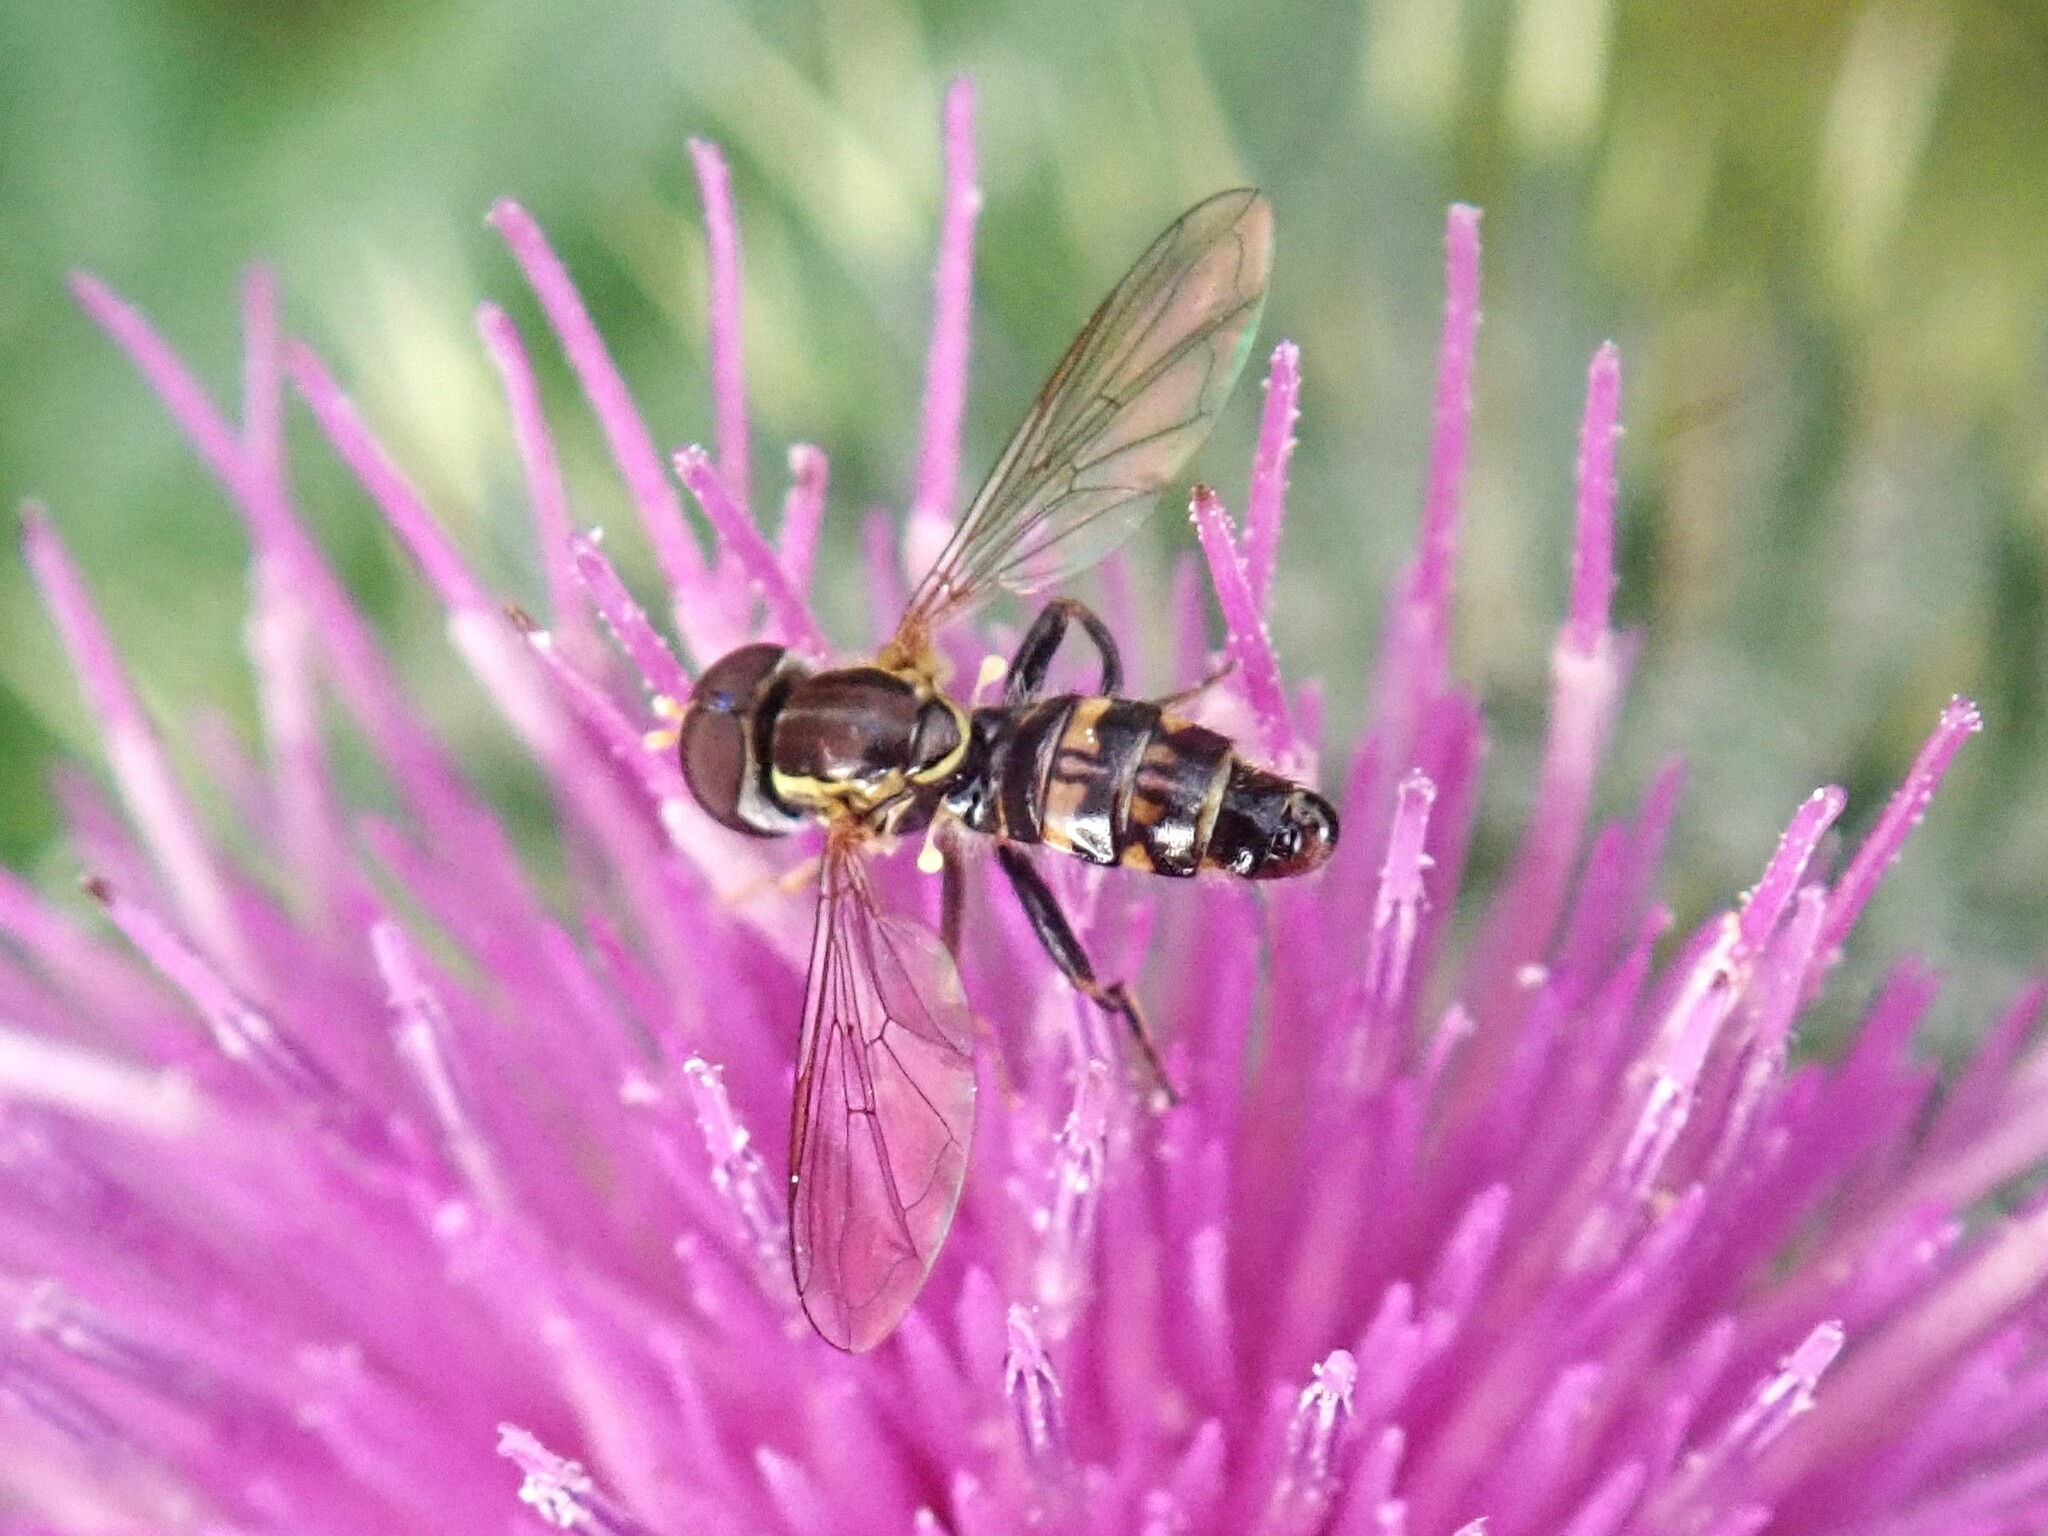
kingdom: Animalia
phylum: Arthropoda
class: Insecta
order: Diptera
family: Syrphidae
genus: Toxomerus
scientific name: Toxomerus occidentalis
